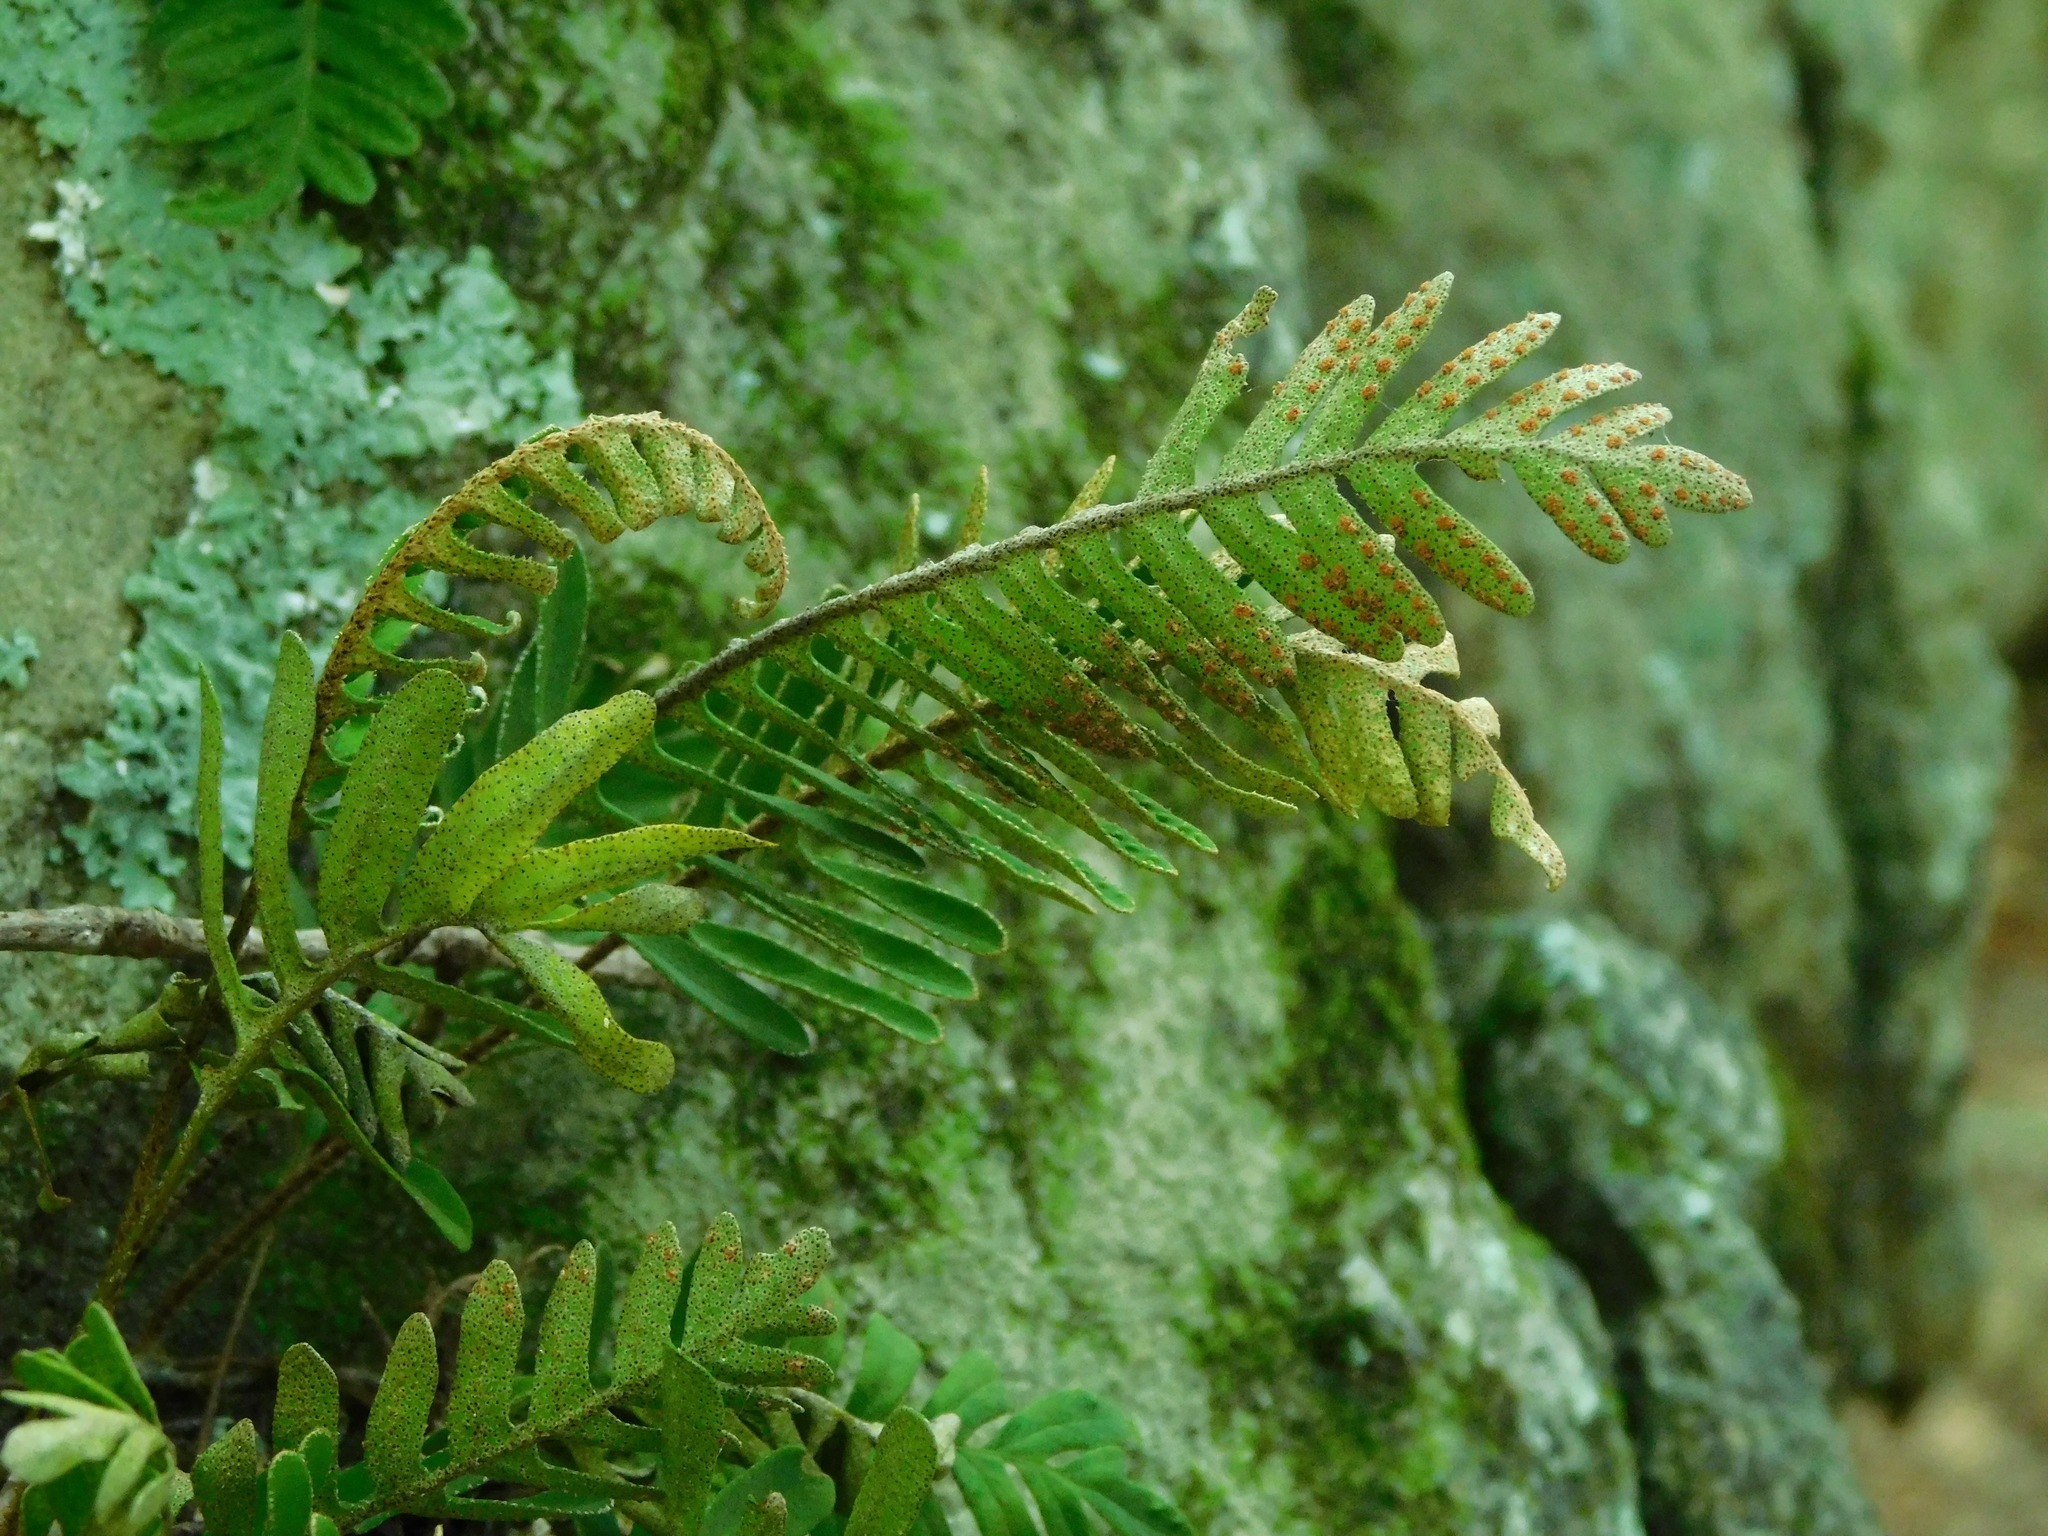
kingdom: Plantae
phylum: Tracheophyta
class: Polypodiopsida
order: Polypodiales
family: Polypodiaceae
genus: Pleopeltis
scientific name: Pleopeltis michauxiana
